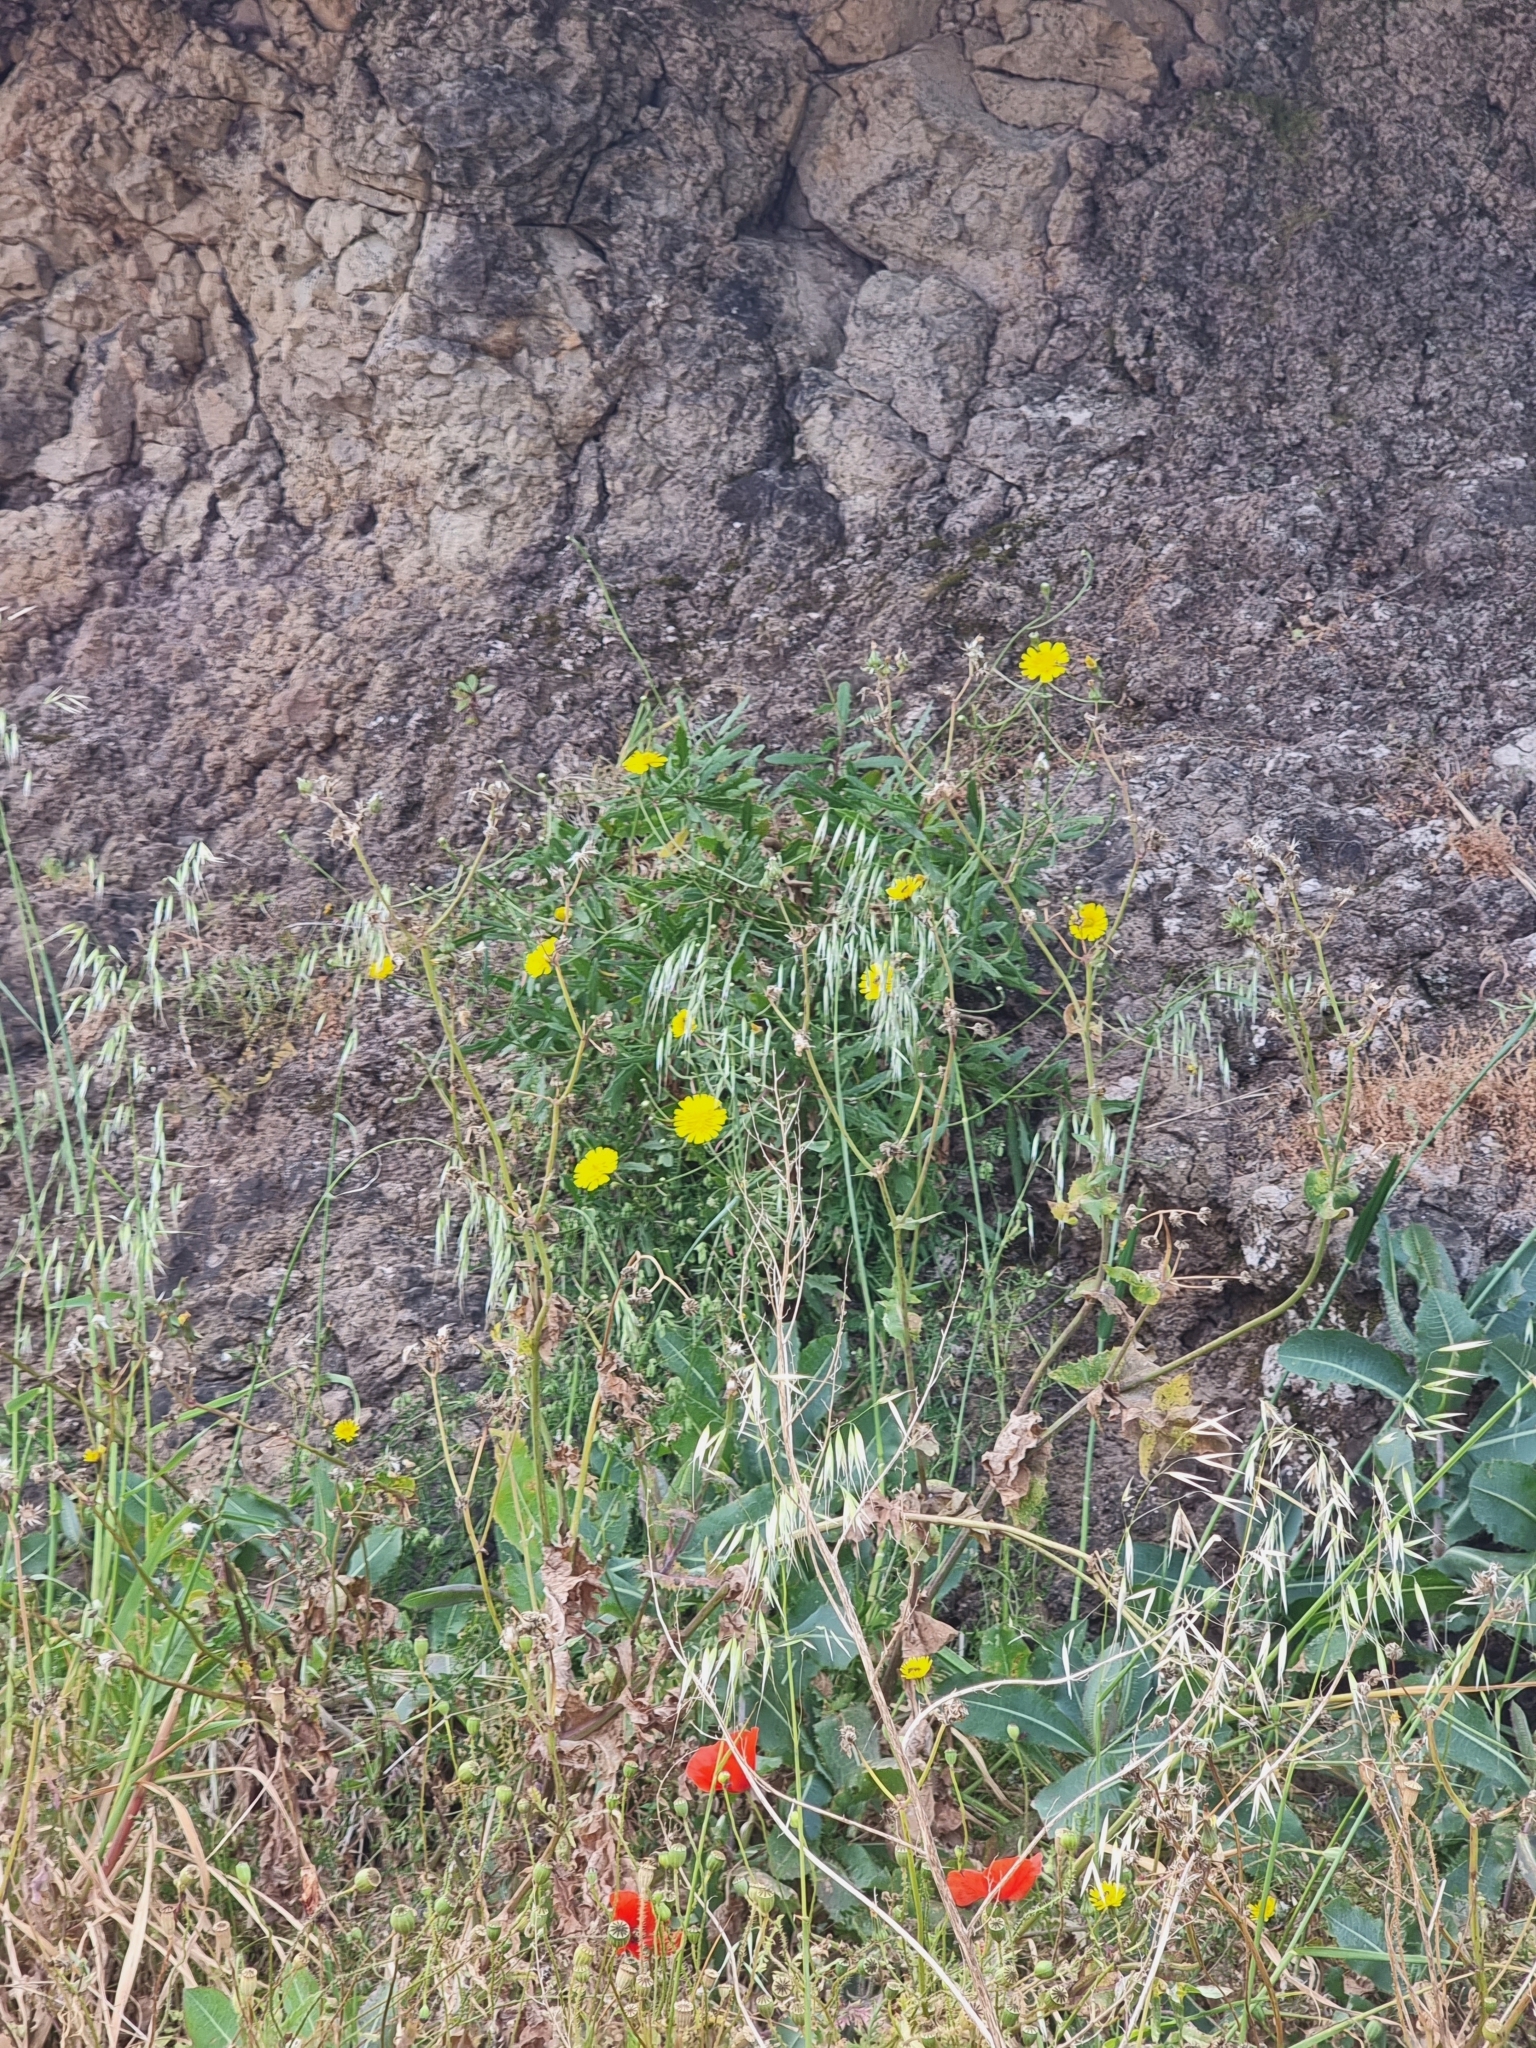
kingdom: Plantae
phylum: Tracheophyta
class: Magnoliopsida
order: Asterales
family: Asteraceae
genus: Tolpis
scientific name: Tolpis succulenta
